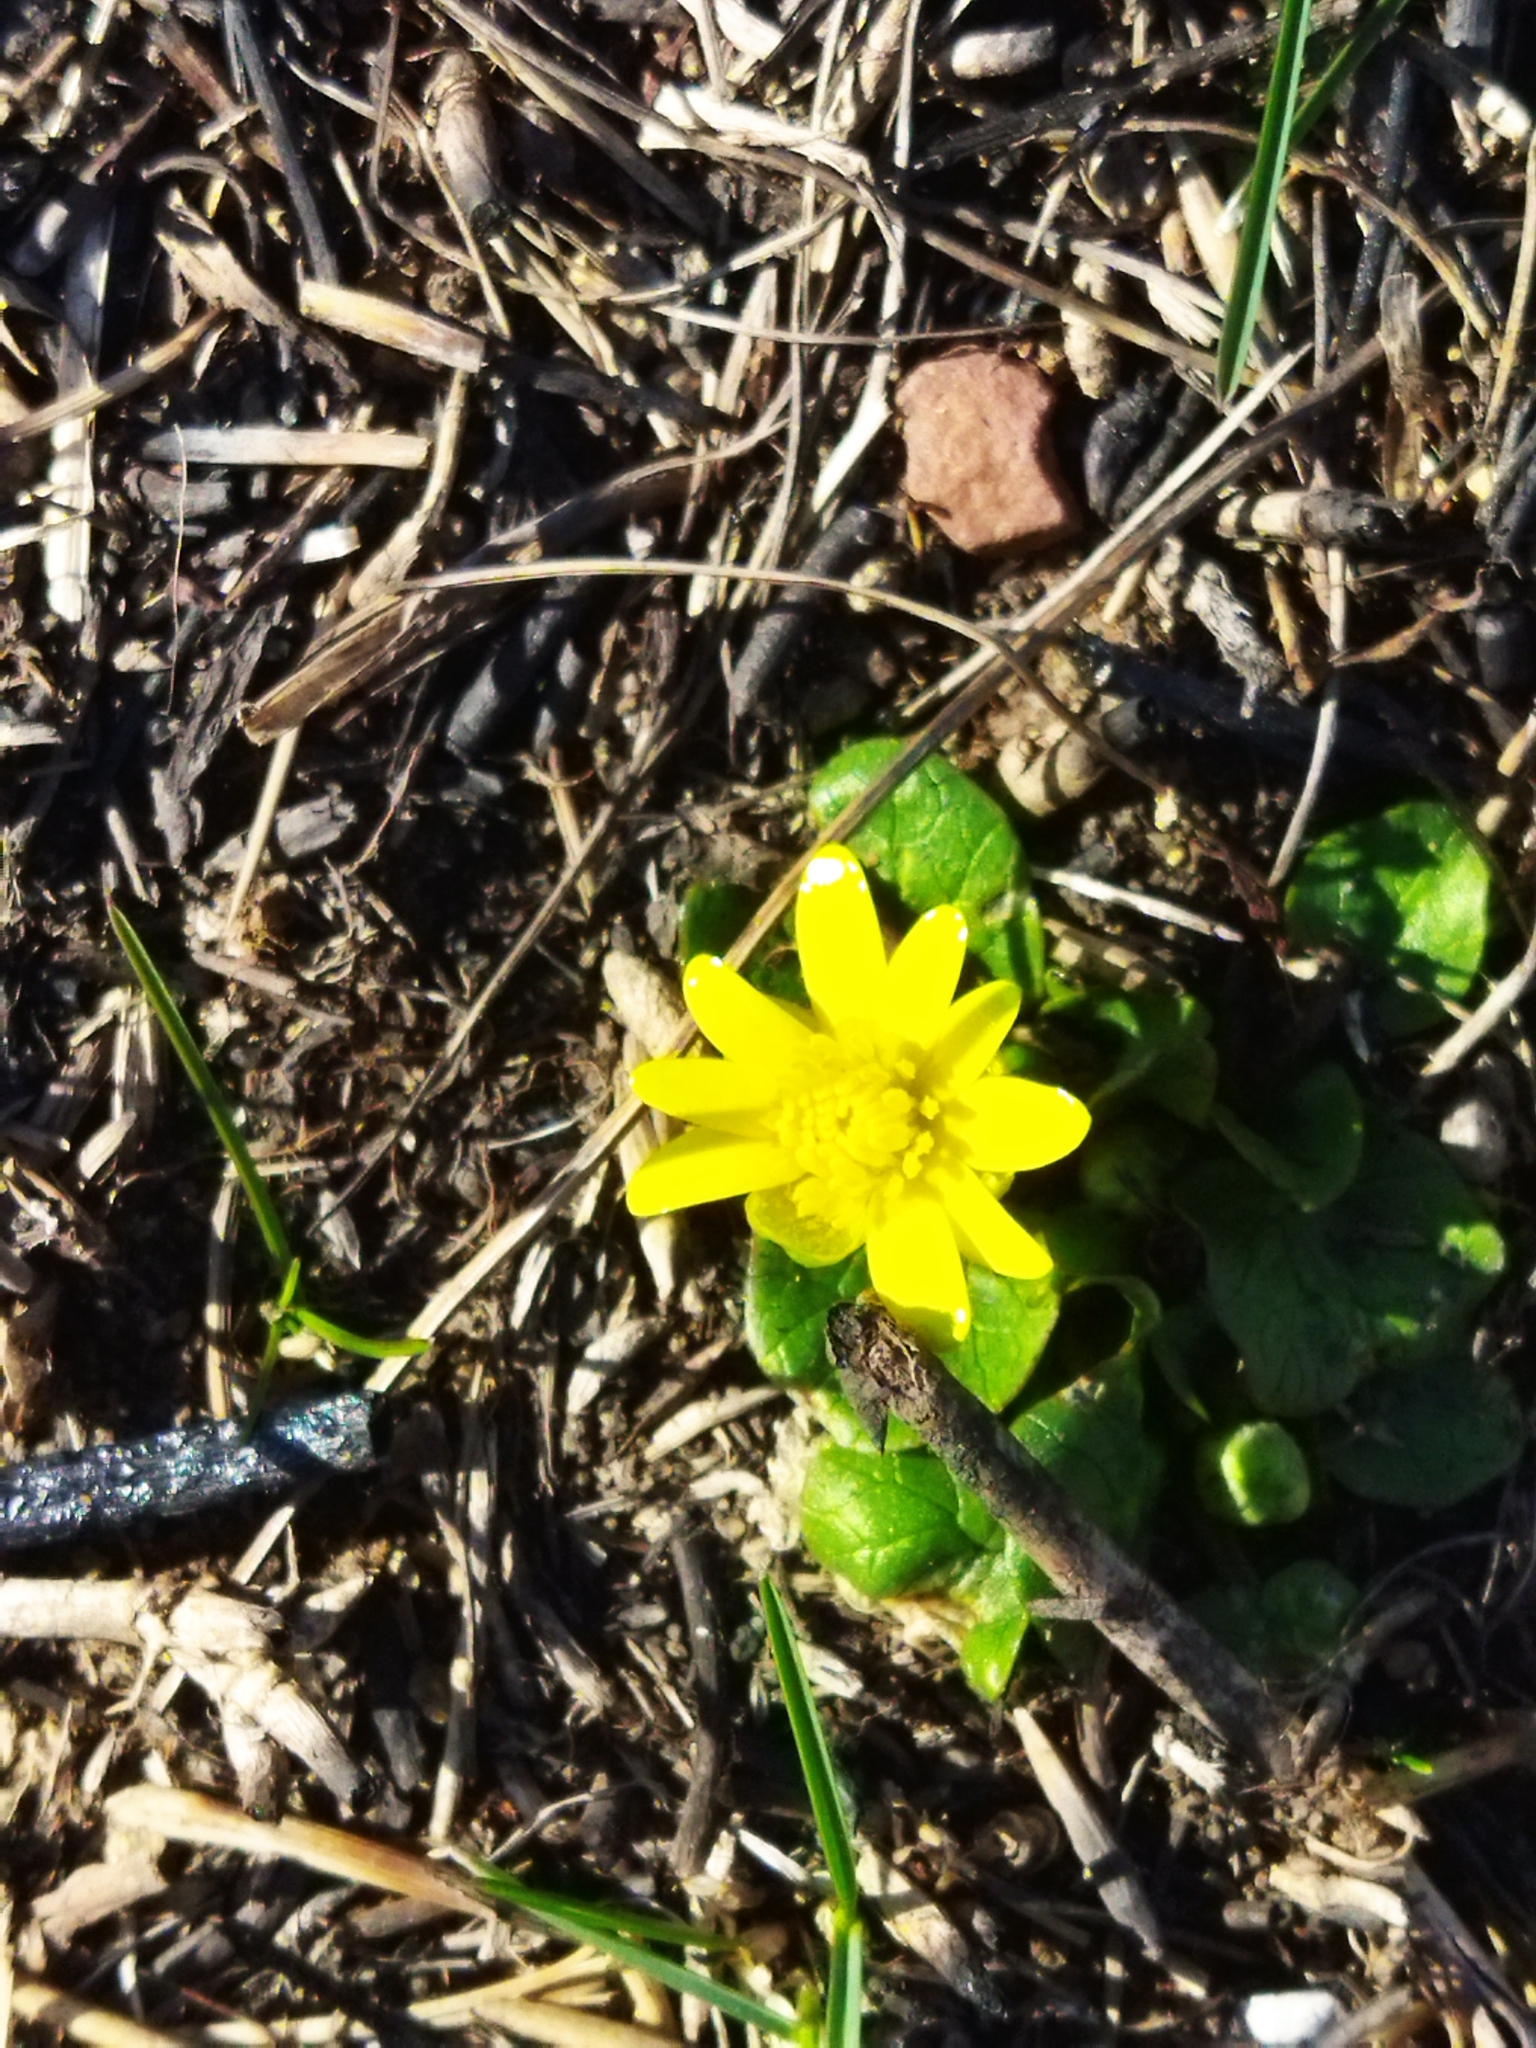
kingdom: Plantae
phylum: Tracheophyta
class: Magnoliopsida
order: Ranunculales
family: Ranunculaceae
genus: Ficaria
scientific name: Ficaria verna
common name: Lesser celandine
